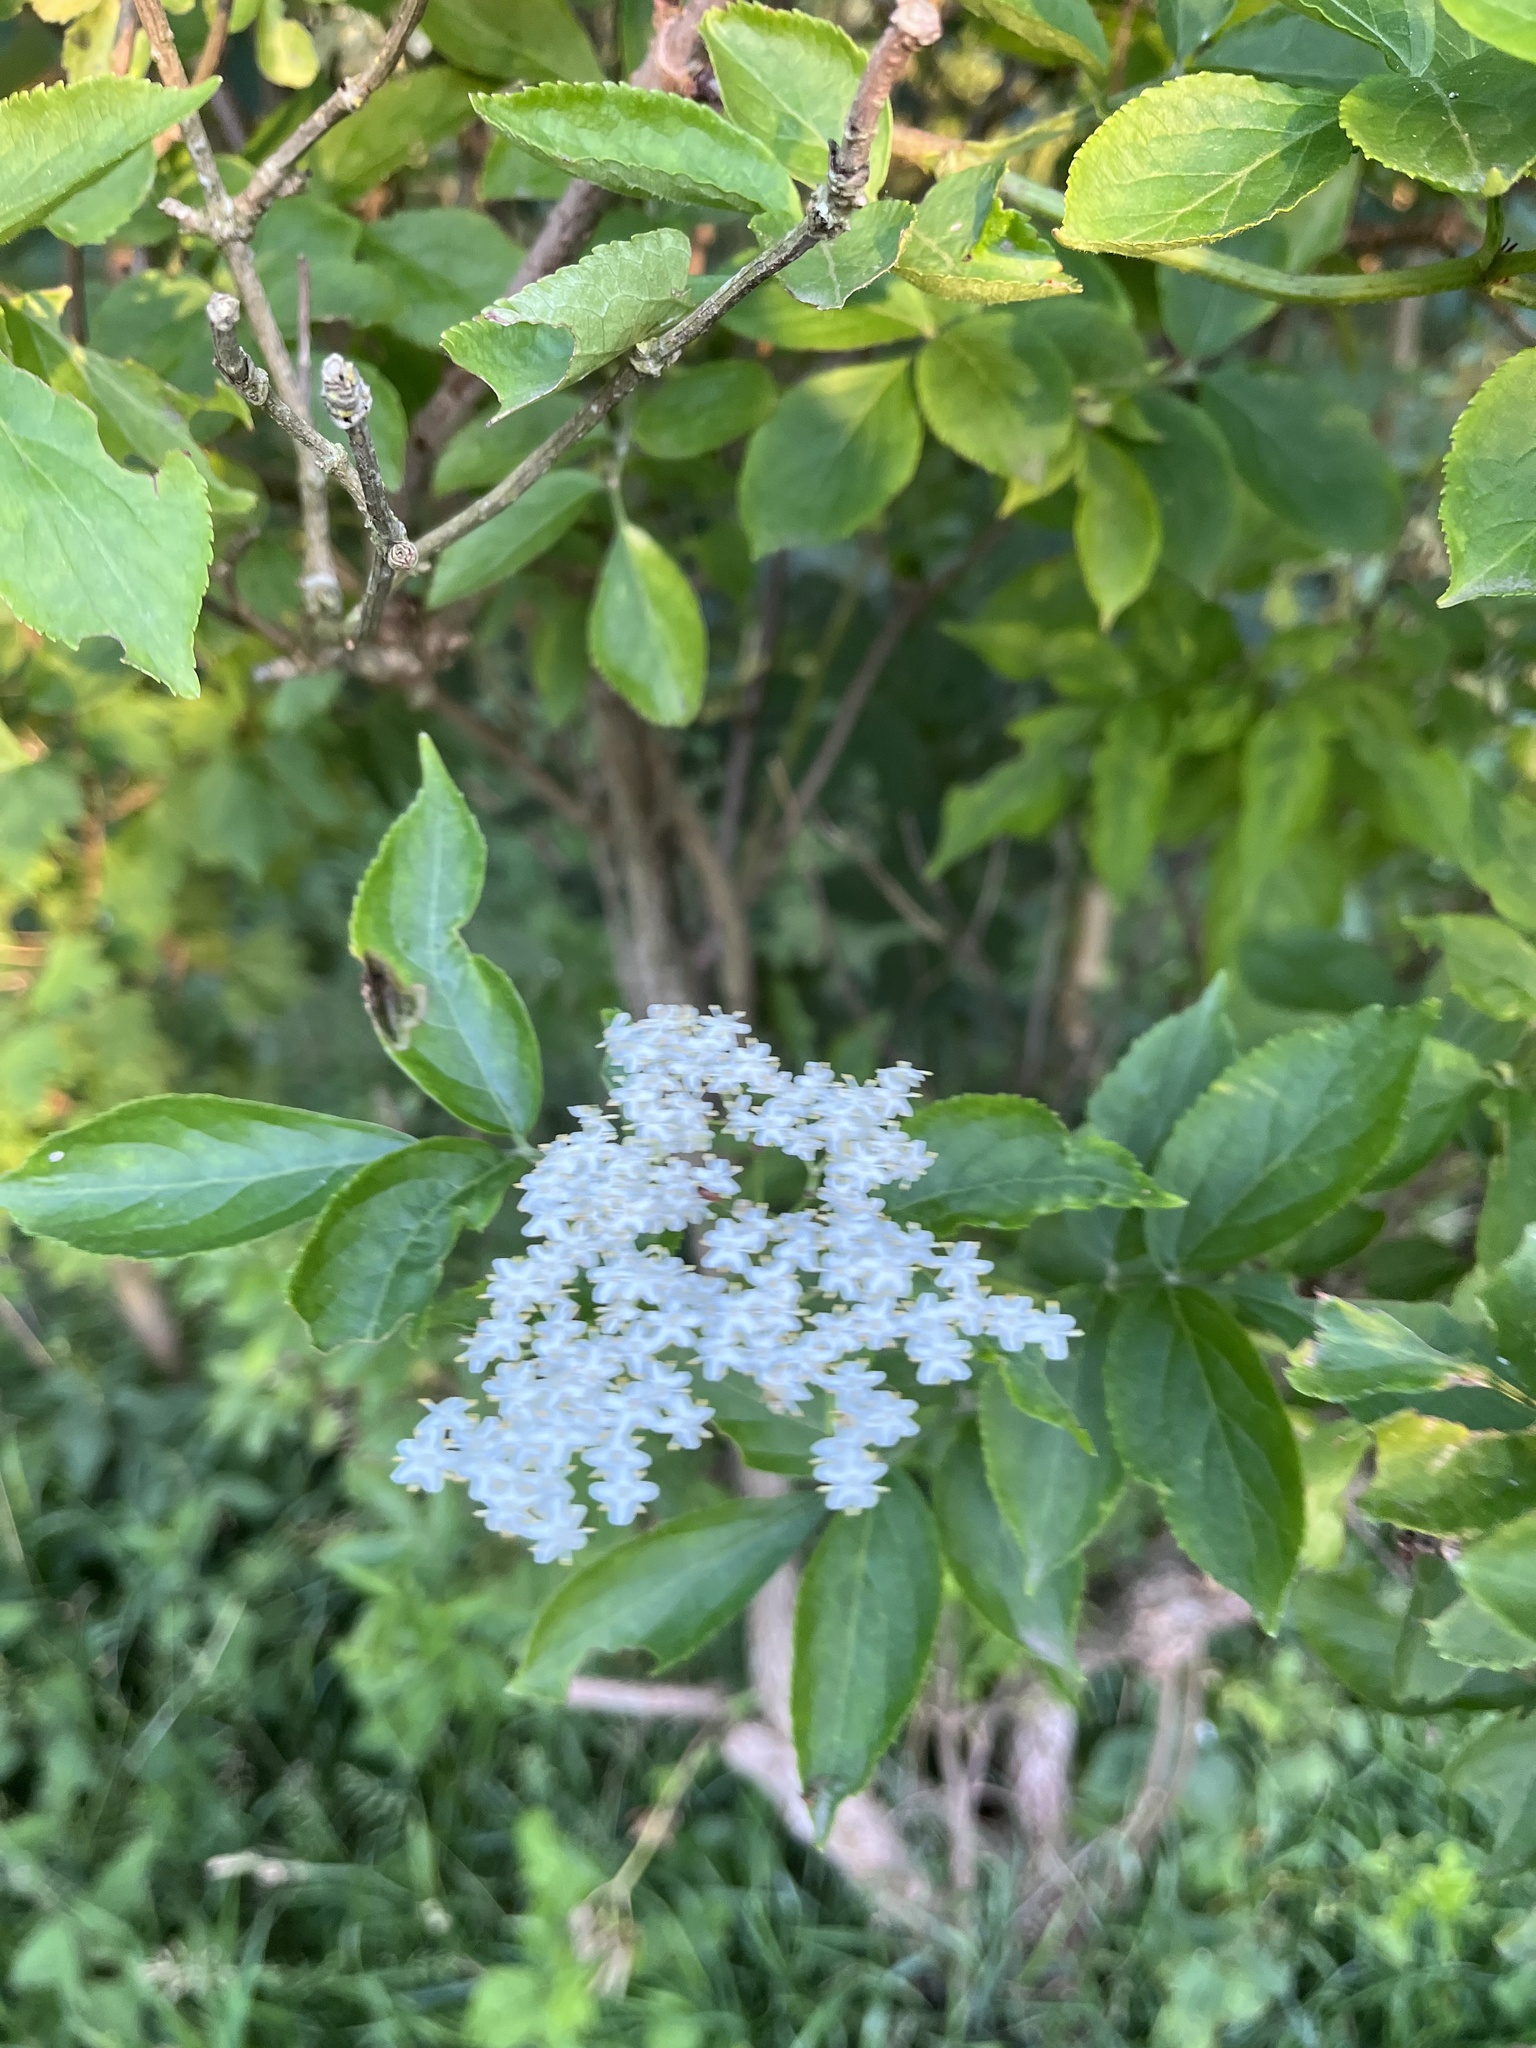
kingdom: Plantae
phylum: Tracheophyta
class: Magnoliopsida
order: Dipsacales
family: Viburnaceae
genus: Sambucus
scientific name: Sambucus nigra
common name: Elder
